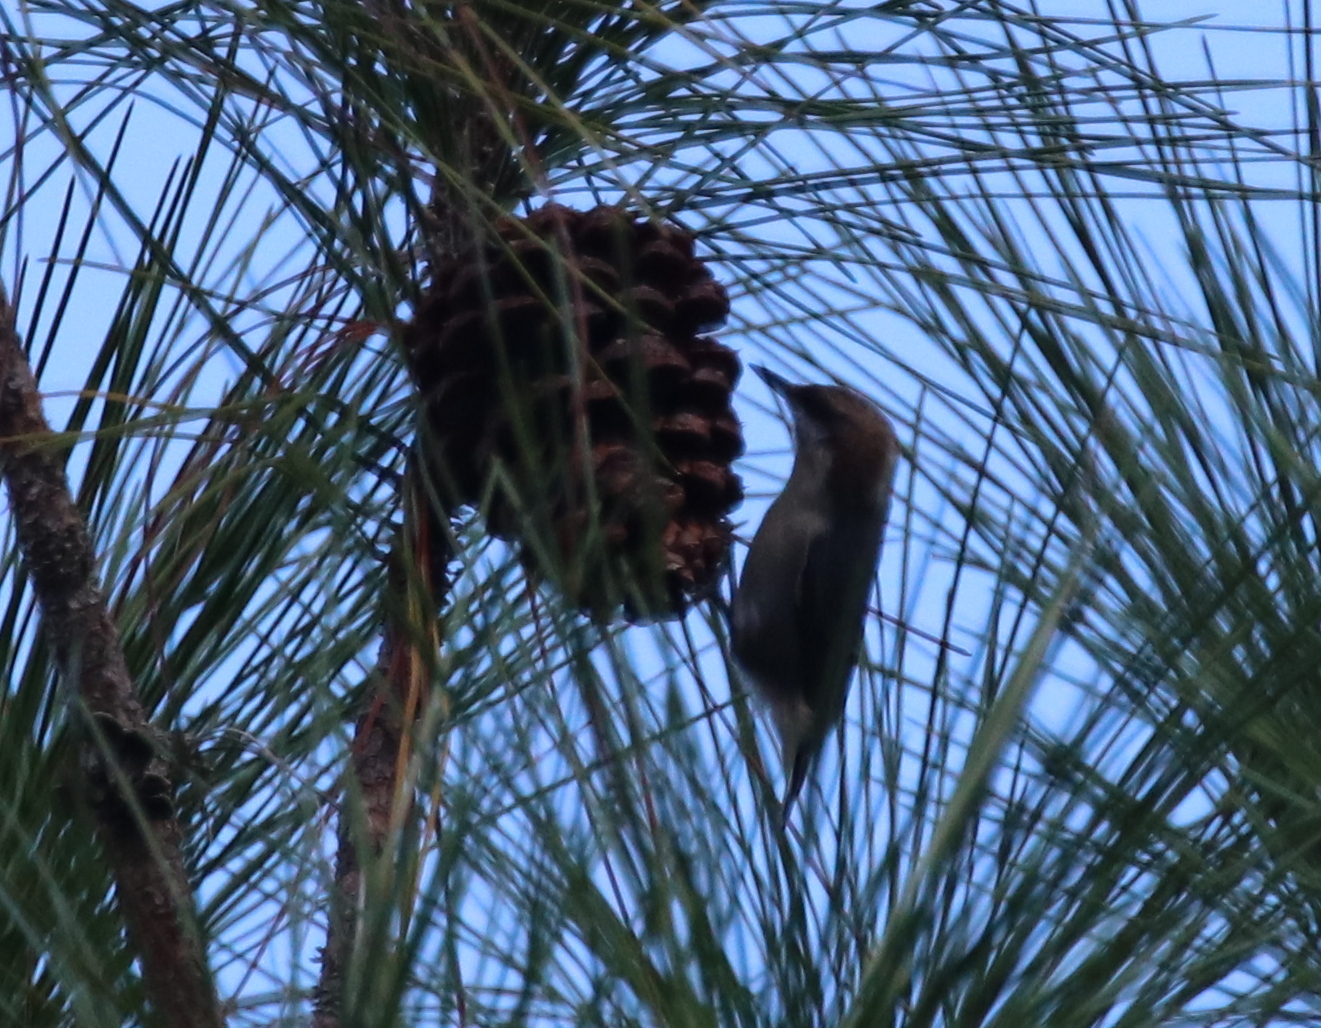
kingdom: Animalia
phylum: Chordata
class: Aves
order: Passeriformes
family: Sittidae
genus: Sitta
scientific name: Sitta pusilla
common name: Brown-headed nuthatch
